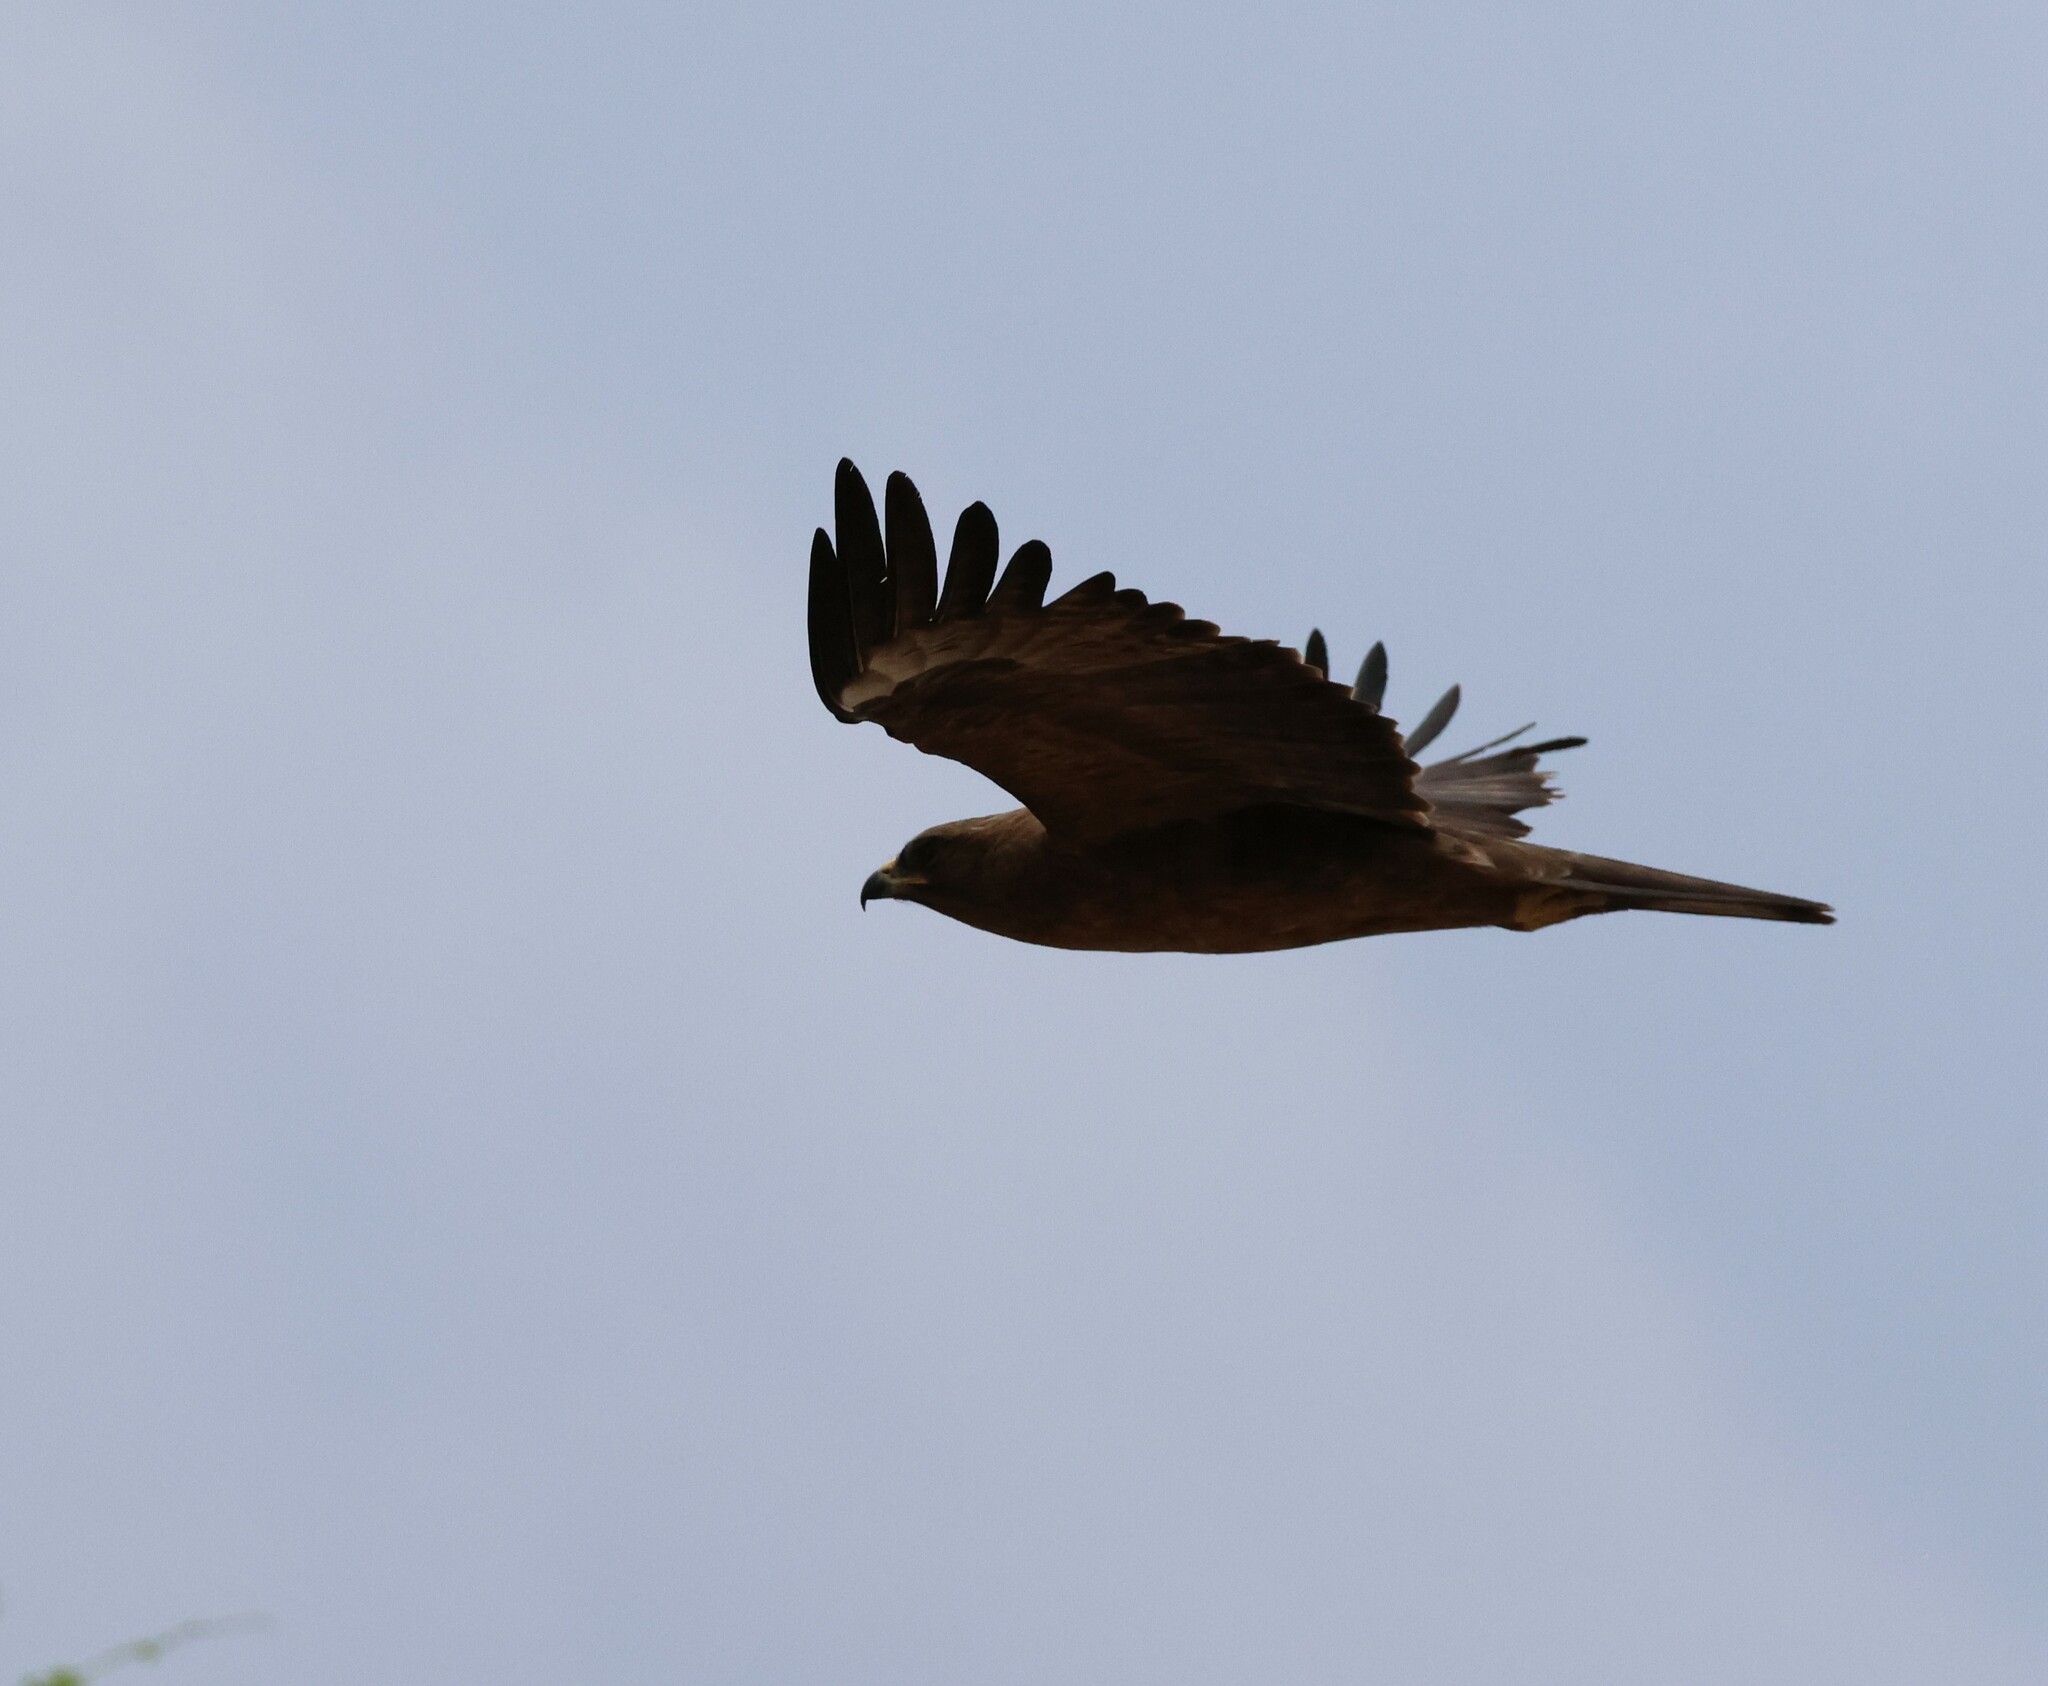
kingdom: Animalia
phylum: Chordata
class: Aves
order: Accipitriformes
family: Accipitridae
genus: Hieraaetus
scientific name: Hieraaetus wahlbergi
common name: Wahlberg's eagle
